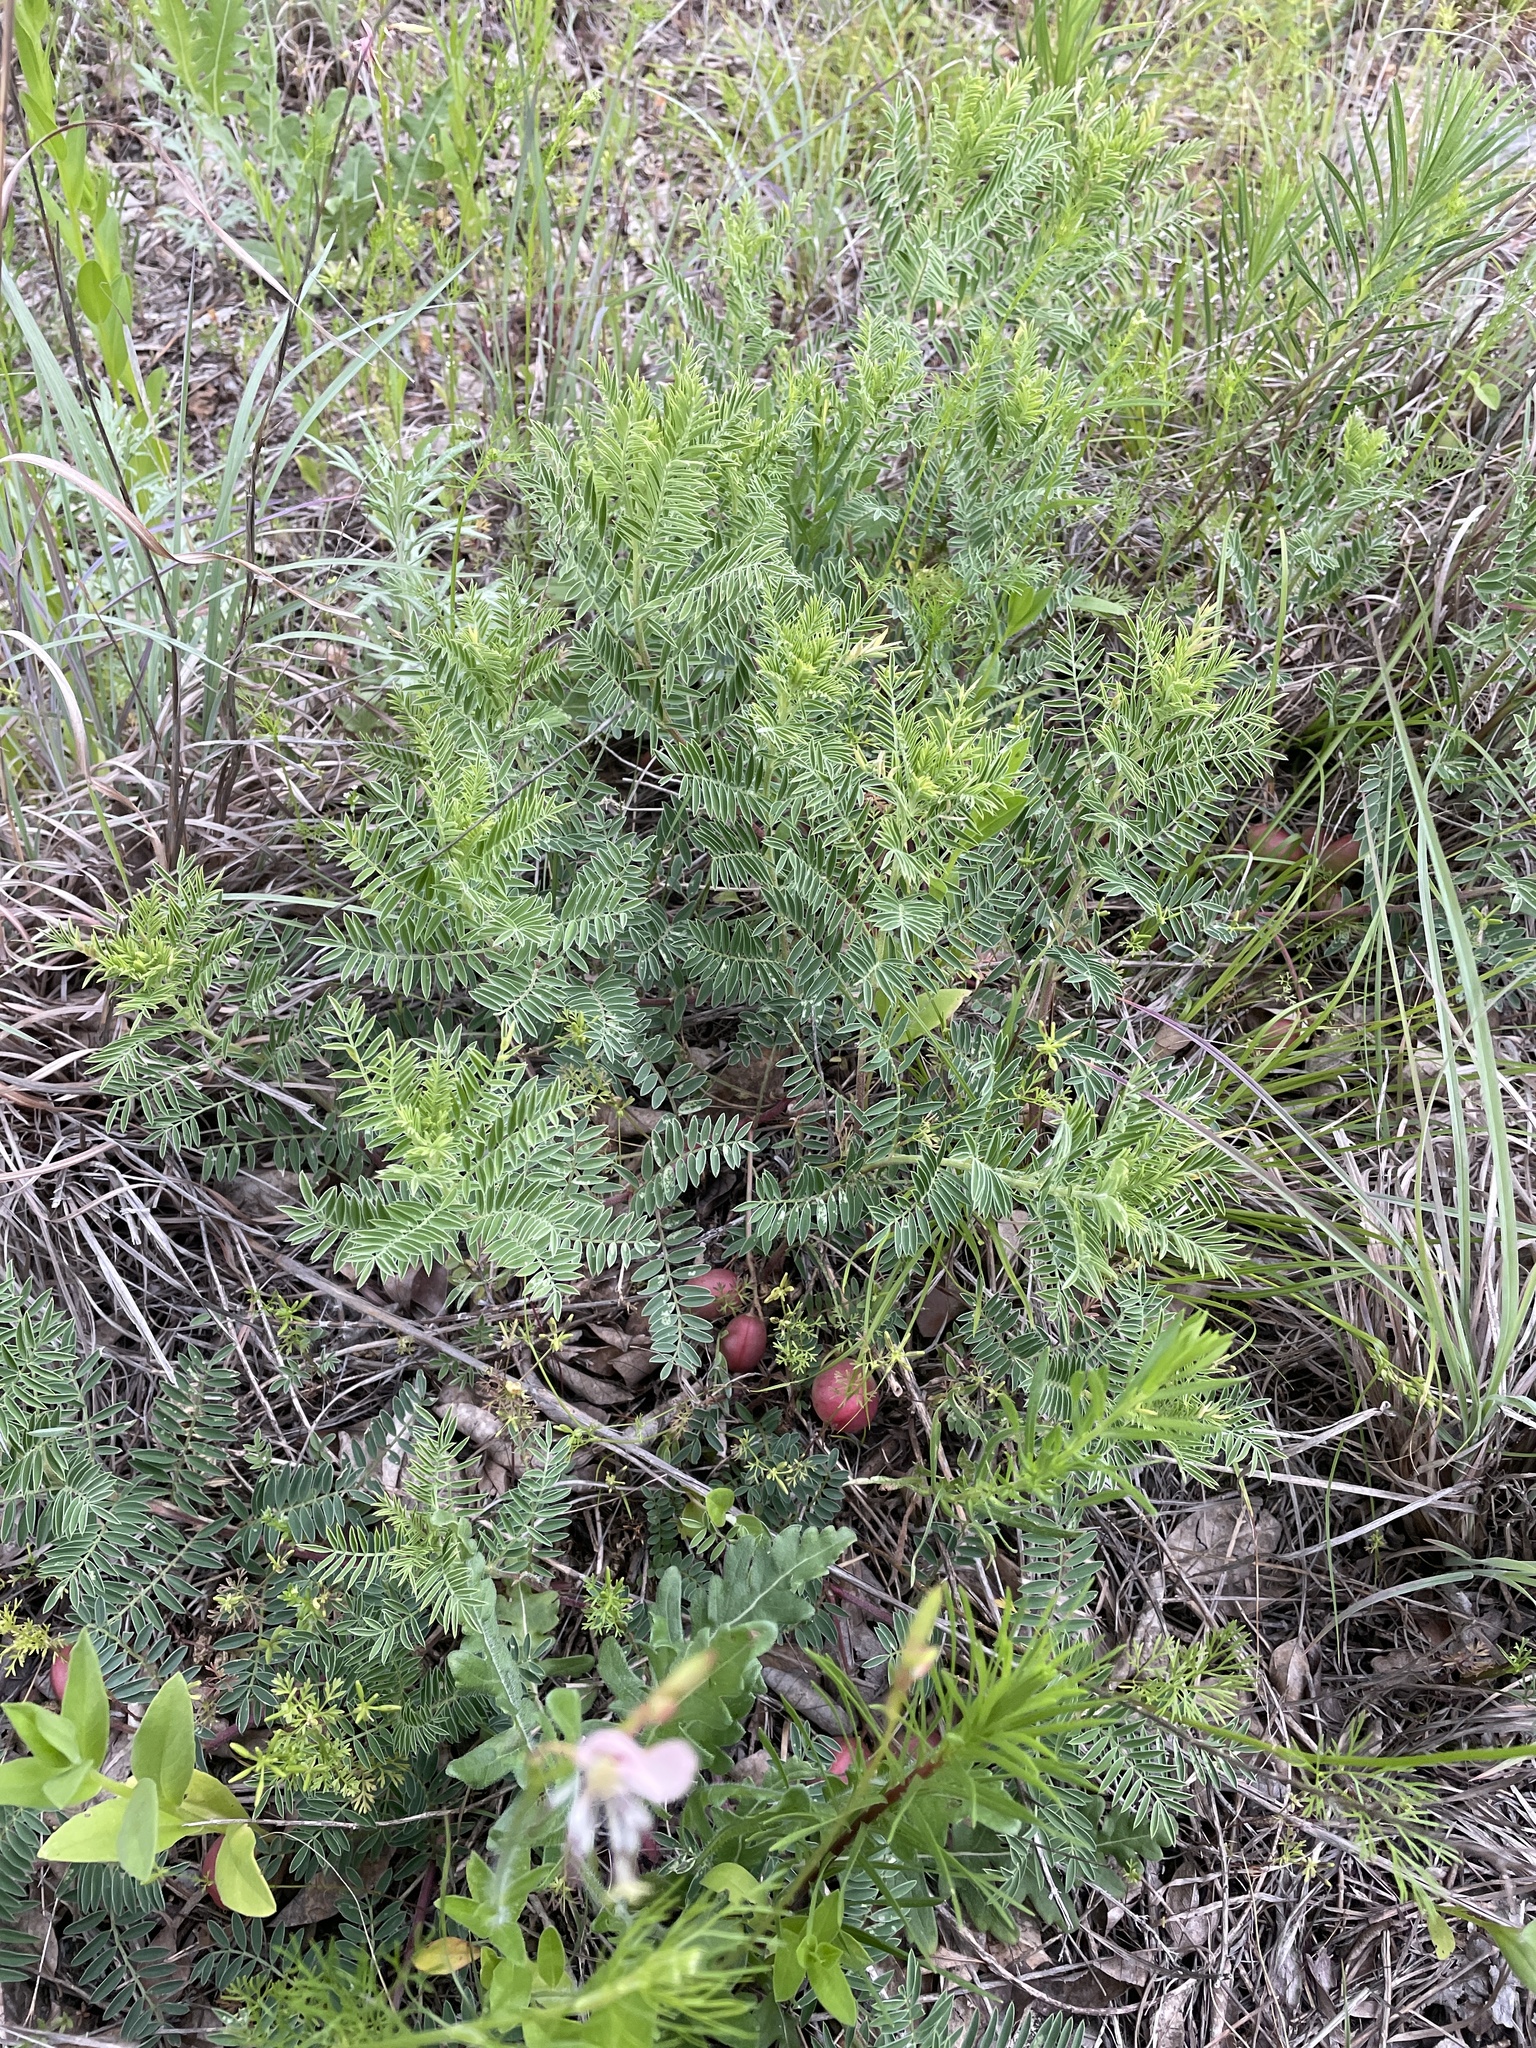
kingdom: Plantae
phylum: Tracheophyta
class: Magnoliopsida
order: Fabales
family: Fabaceae
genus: Astragalus
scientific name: Astragalus crassicarpus
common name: Ground-plum milk-vetch
